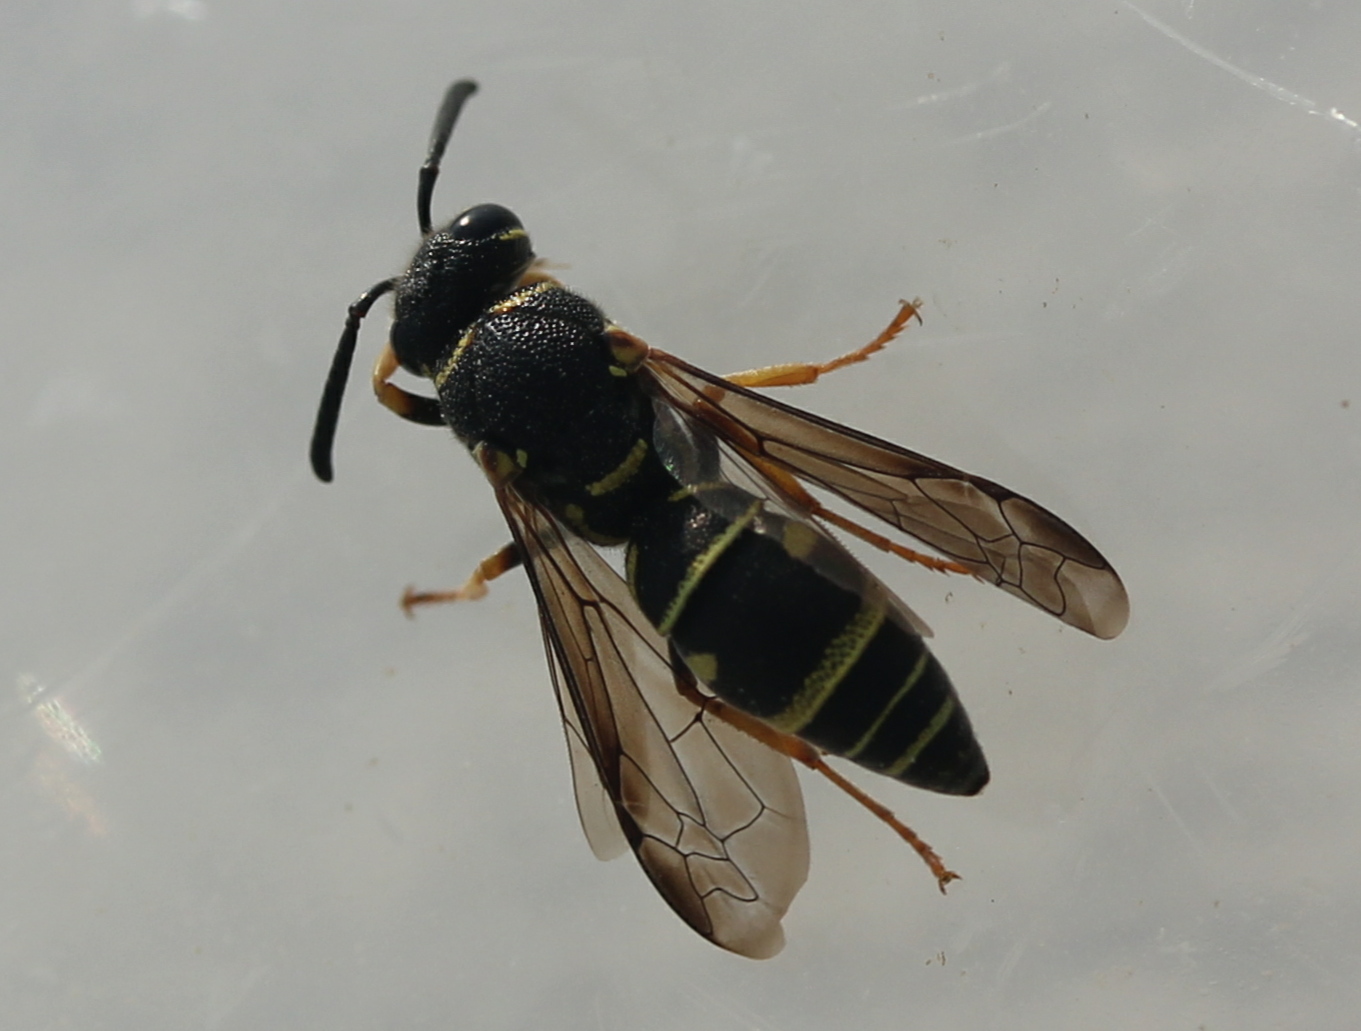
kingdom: Animalia
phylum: Arthropoda
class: Insecta
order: Hymenoptera
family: Eumenidae
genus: Parancistrocerus
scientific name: Parancistrocerus leionotus
